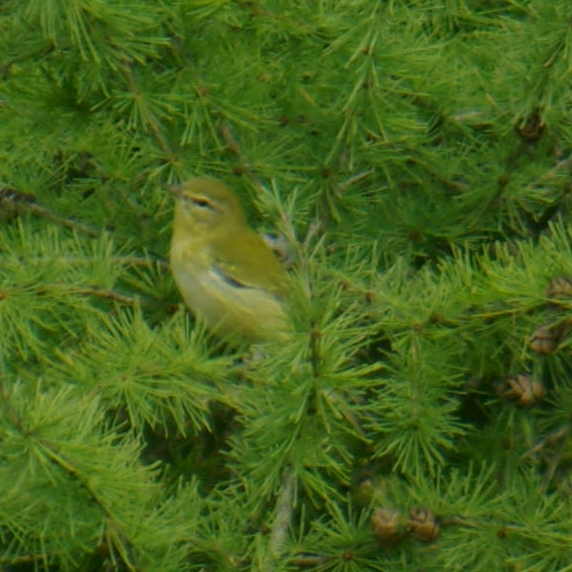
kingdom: Animalia
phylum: Chordata
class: Aves
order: Passeriformes
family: Parulidae
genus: Leiothlypis
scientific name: Leiothlypis peregrina
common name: Tennessee warbler
